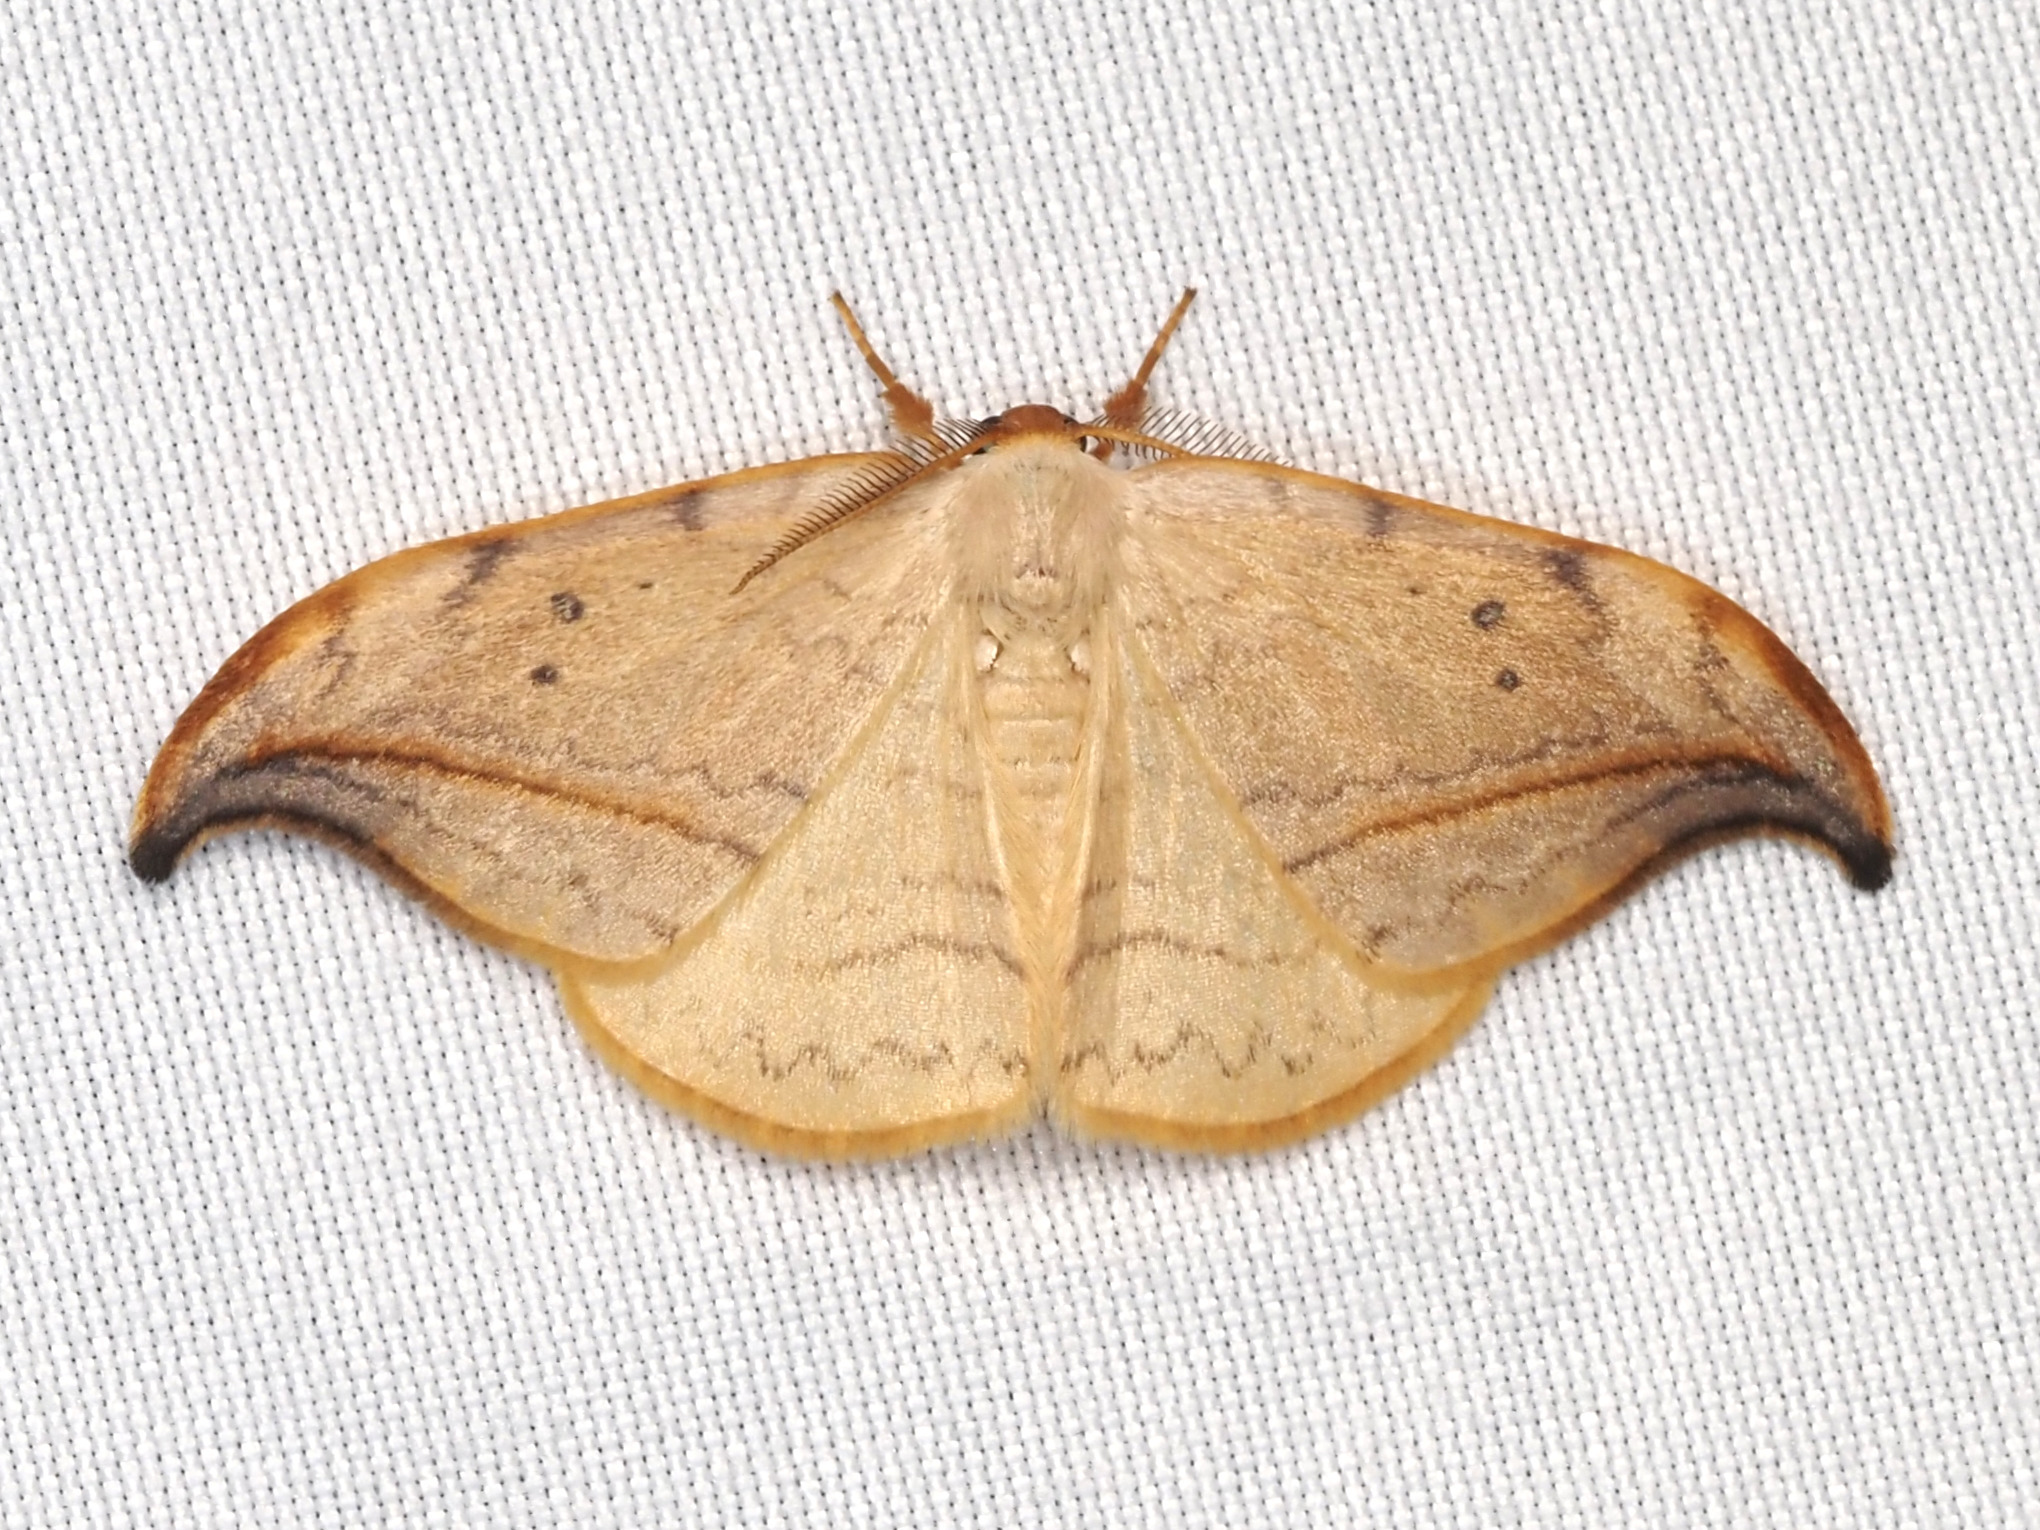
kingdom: Animalia
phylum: Arthropoda
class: Insecta
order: Lepidoptera
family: Drepanidae
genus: Drepana
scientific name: Drepana arcuata
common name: Arched hooktip moth
